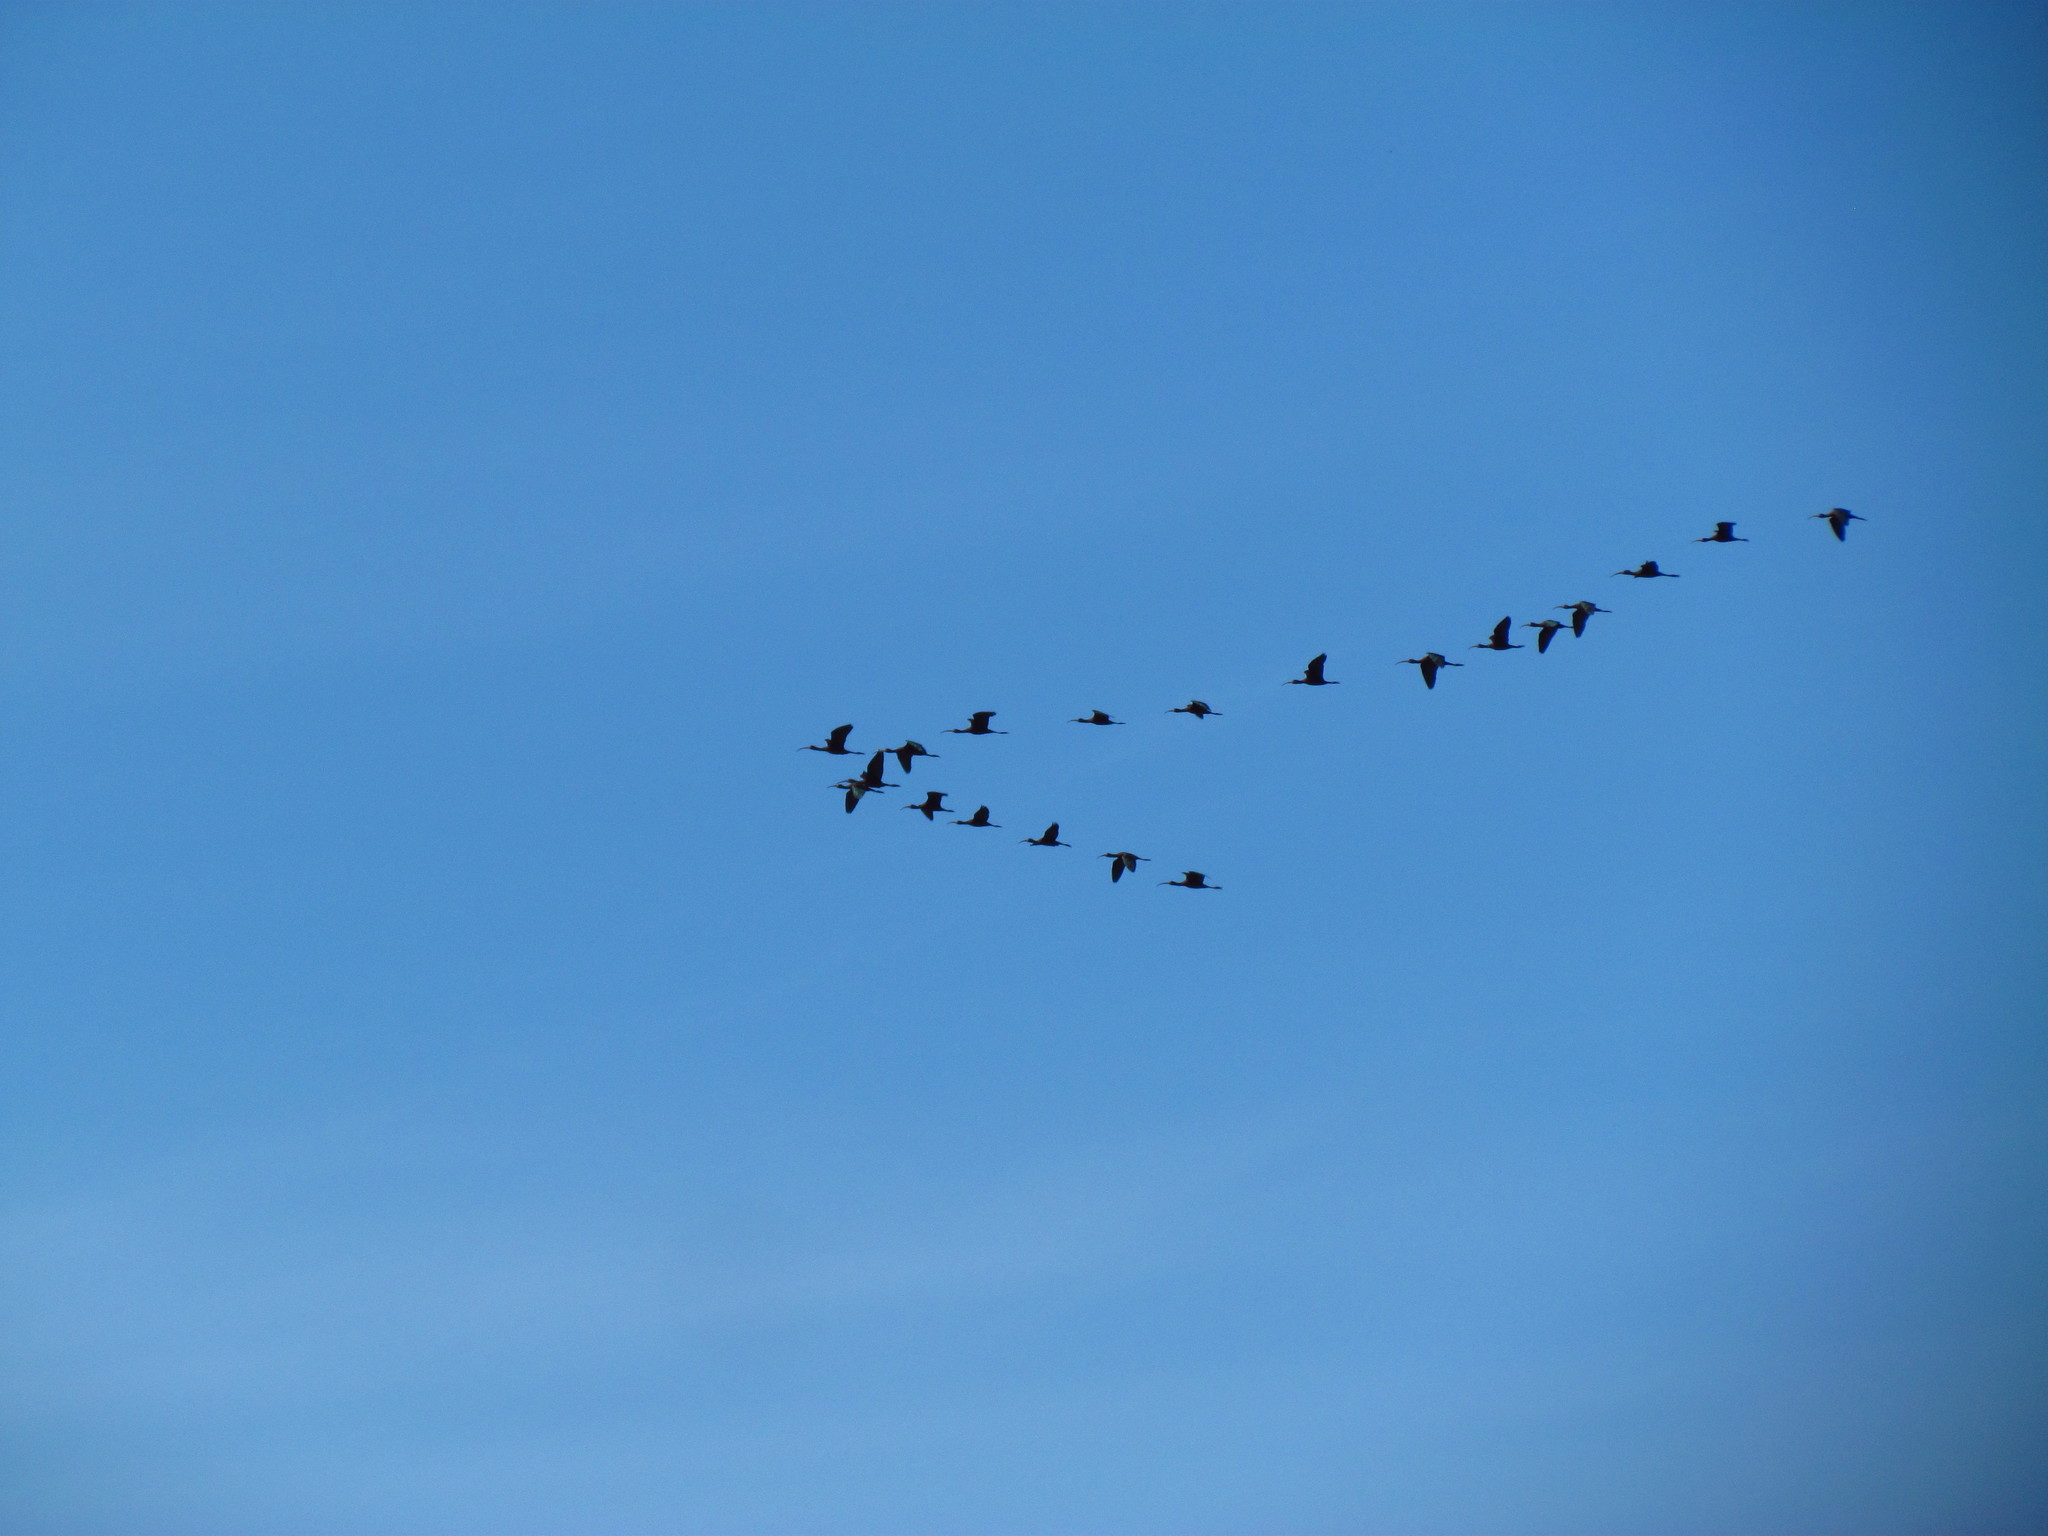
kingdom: Animalia
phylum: Chordata
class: Aves
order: Pelecaniformes
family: Threskiornithidae
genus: Plegadis
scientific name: Plegadis chihi
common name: White-faced ibis
